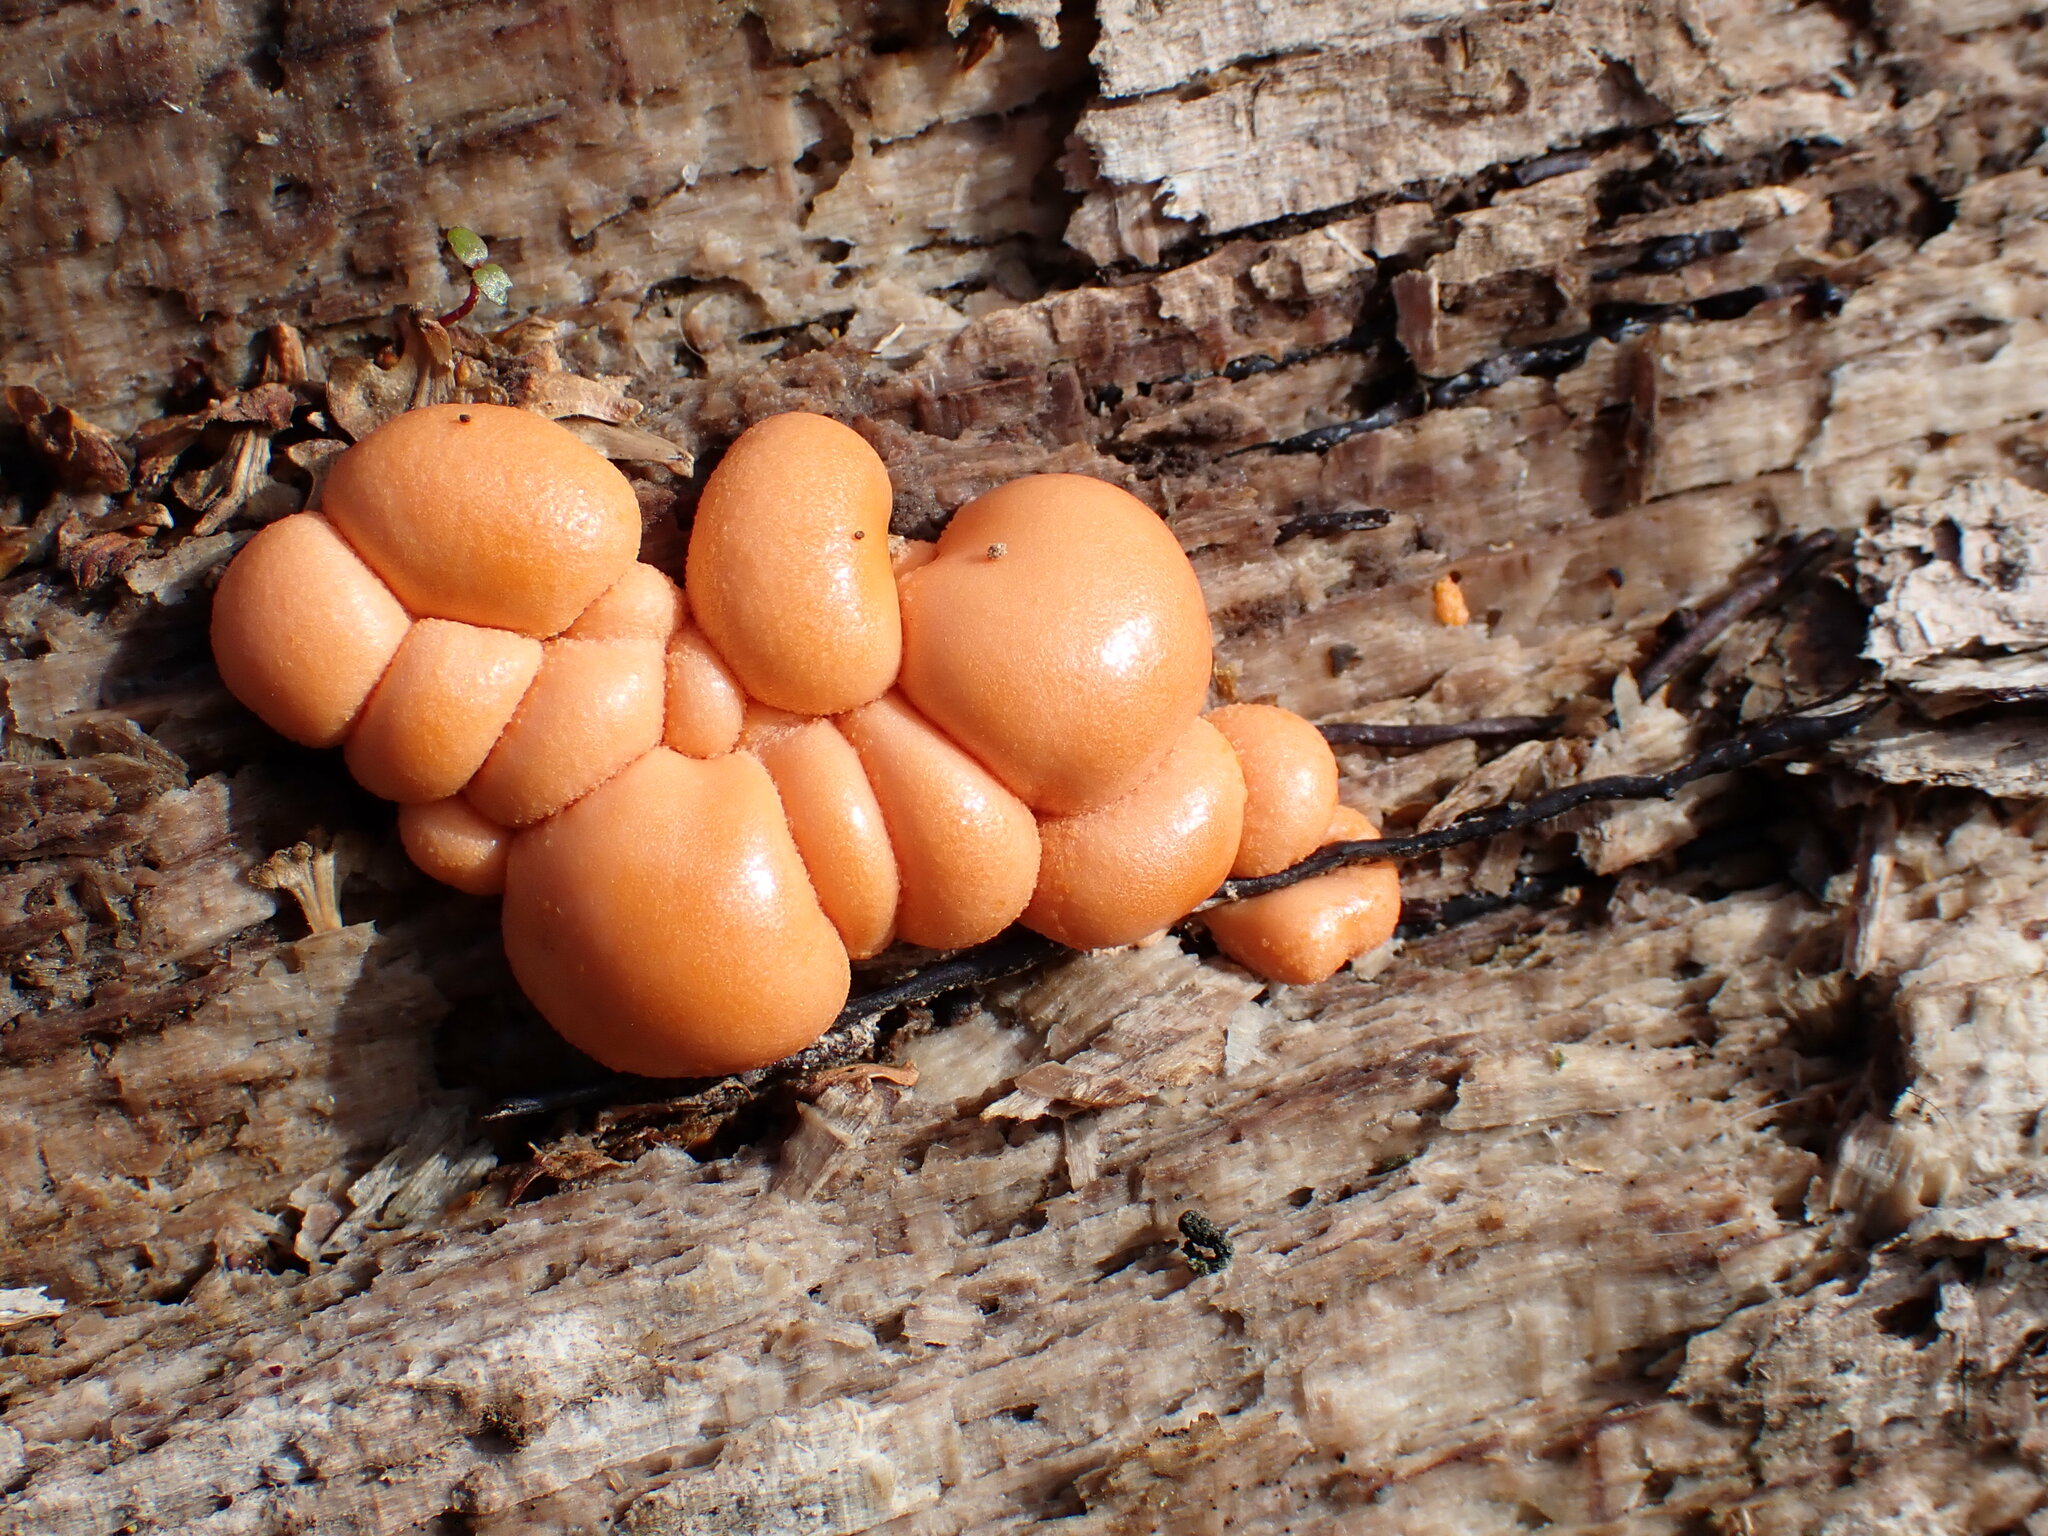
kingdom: Protozoa
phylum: Mycetozoa
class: Myxomycetes
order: Cribrariales
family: Tubiferaceae
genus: Lycogala
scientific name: Lycogala epidendrum
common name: Wolf's milk
